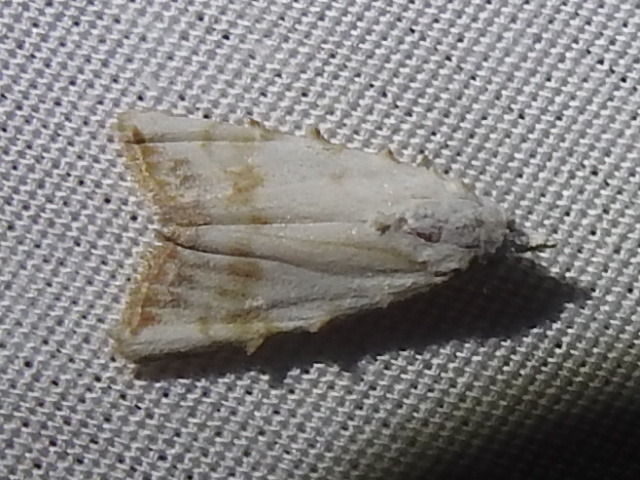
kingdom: Animalia
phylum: Arthropoda
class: Insecta
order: Lepidoptera
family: Nolidae
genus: Nola
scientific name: Nola cereella
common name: Sorghum webworm moth
